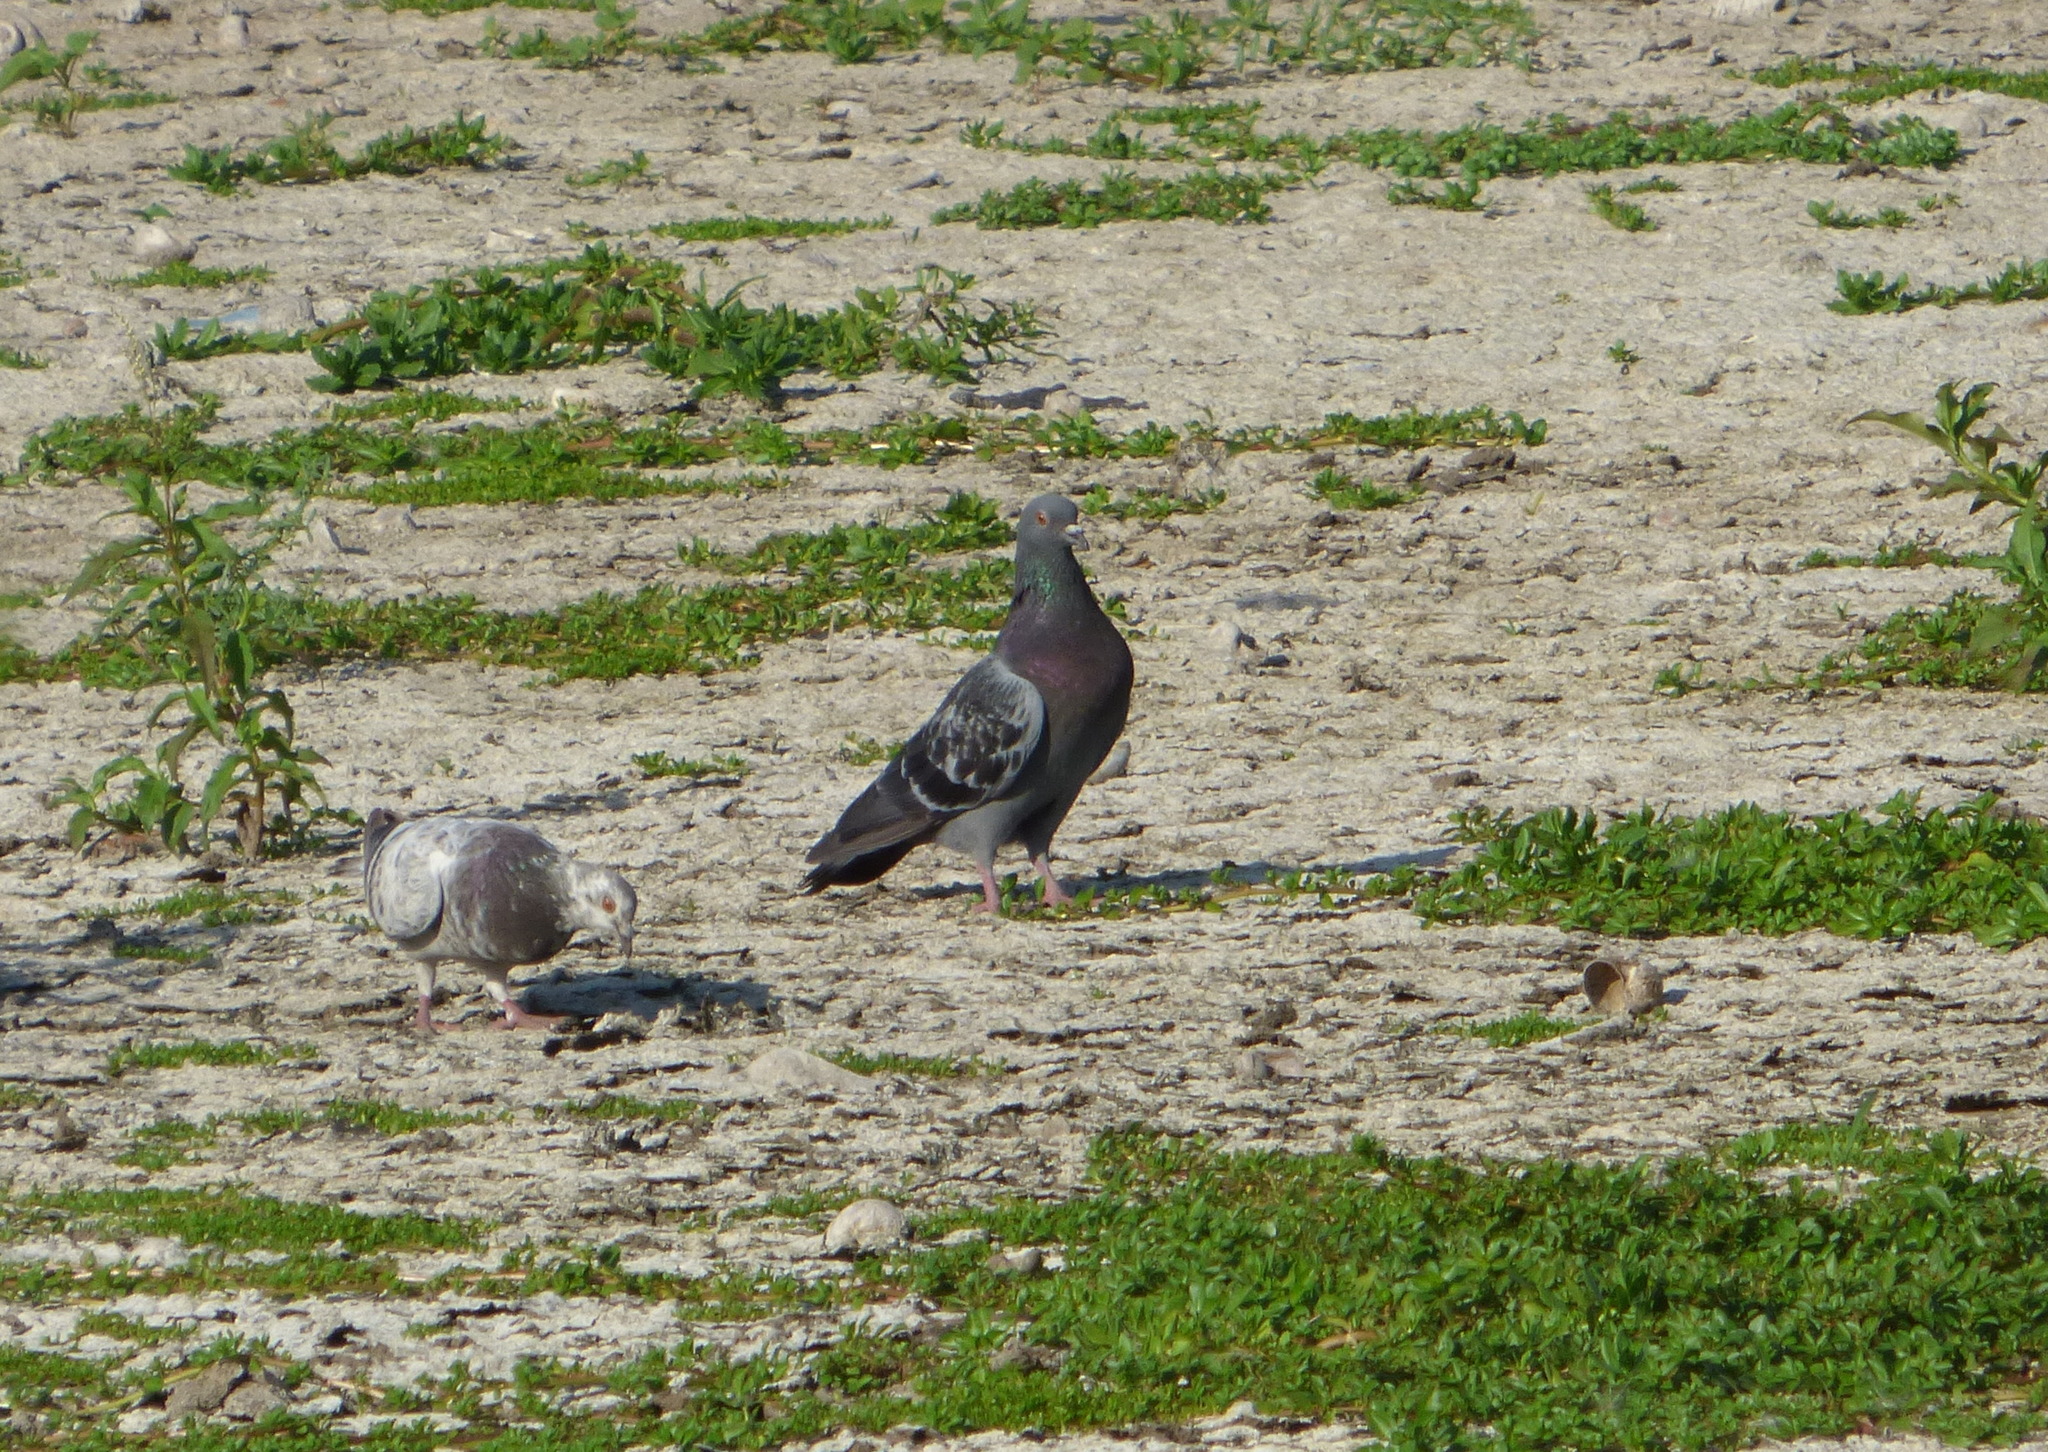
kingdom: Animalia
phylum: Chordata
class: Aves
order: Columbiformes
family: Columbidae
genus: Columba
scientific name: Columba livia
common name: Rock pigeon
